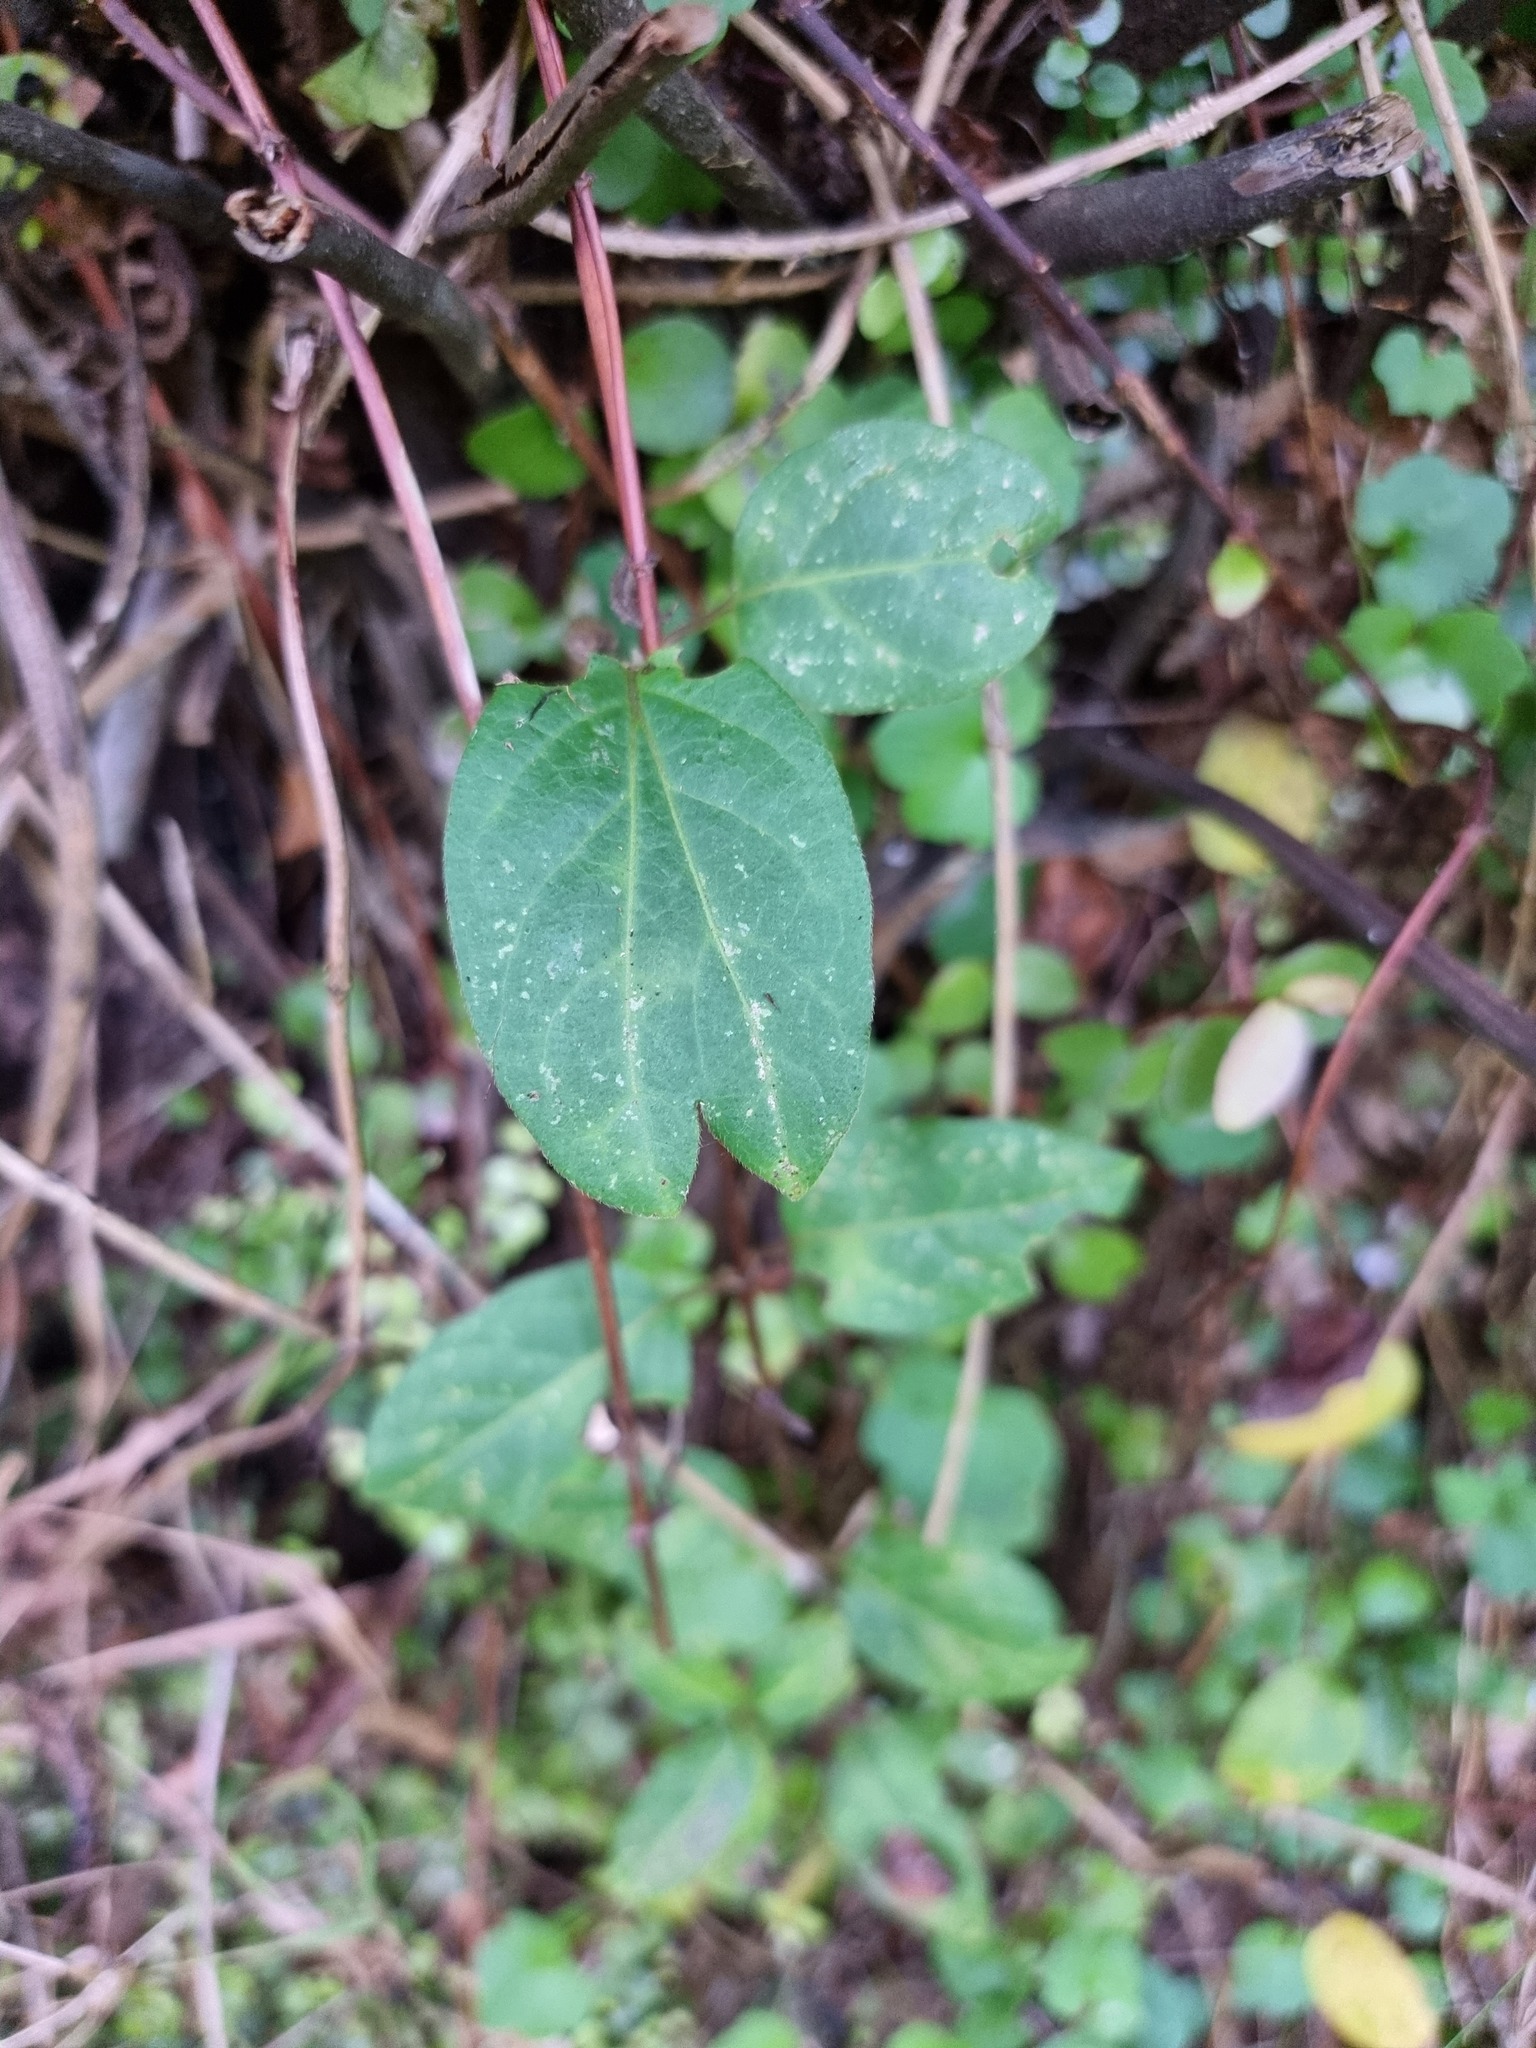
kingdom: Plantae
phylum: Tracheophyta
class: Magnoliopsida
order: Dipsacales
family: Caprifoliaceae
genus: Lonicera
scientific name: Lonicera japonica
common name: Japanese honeysuckle
